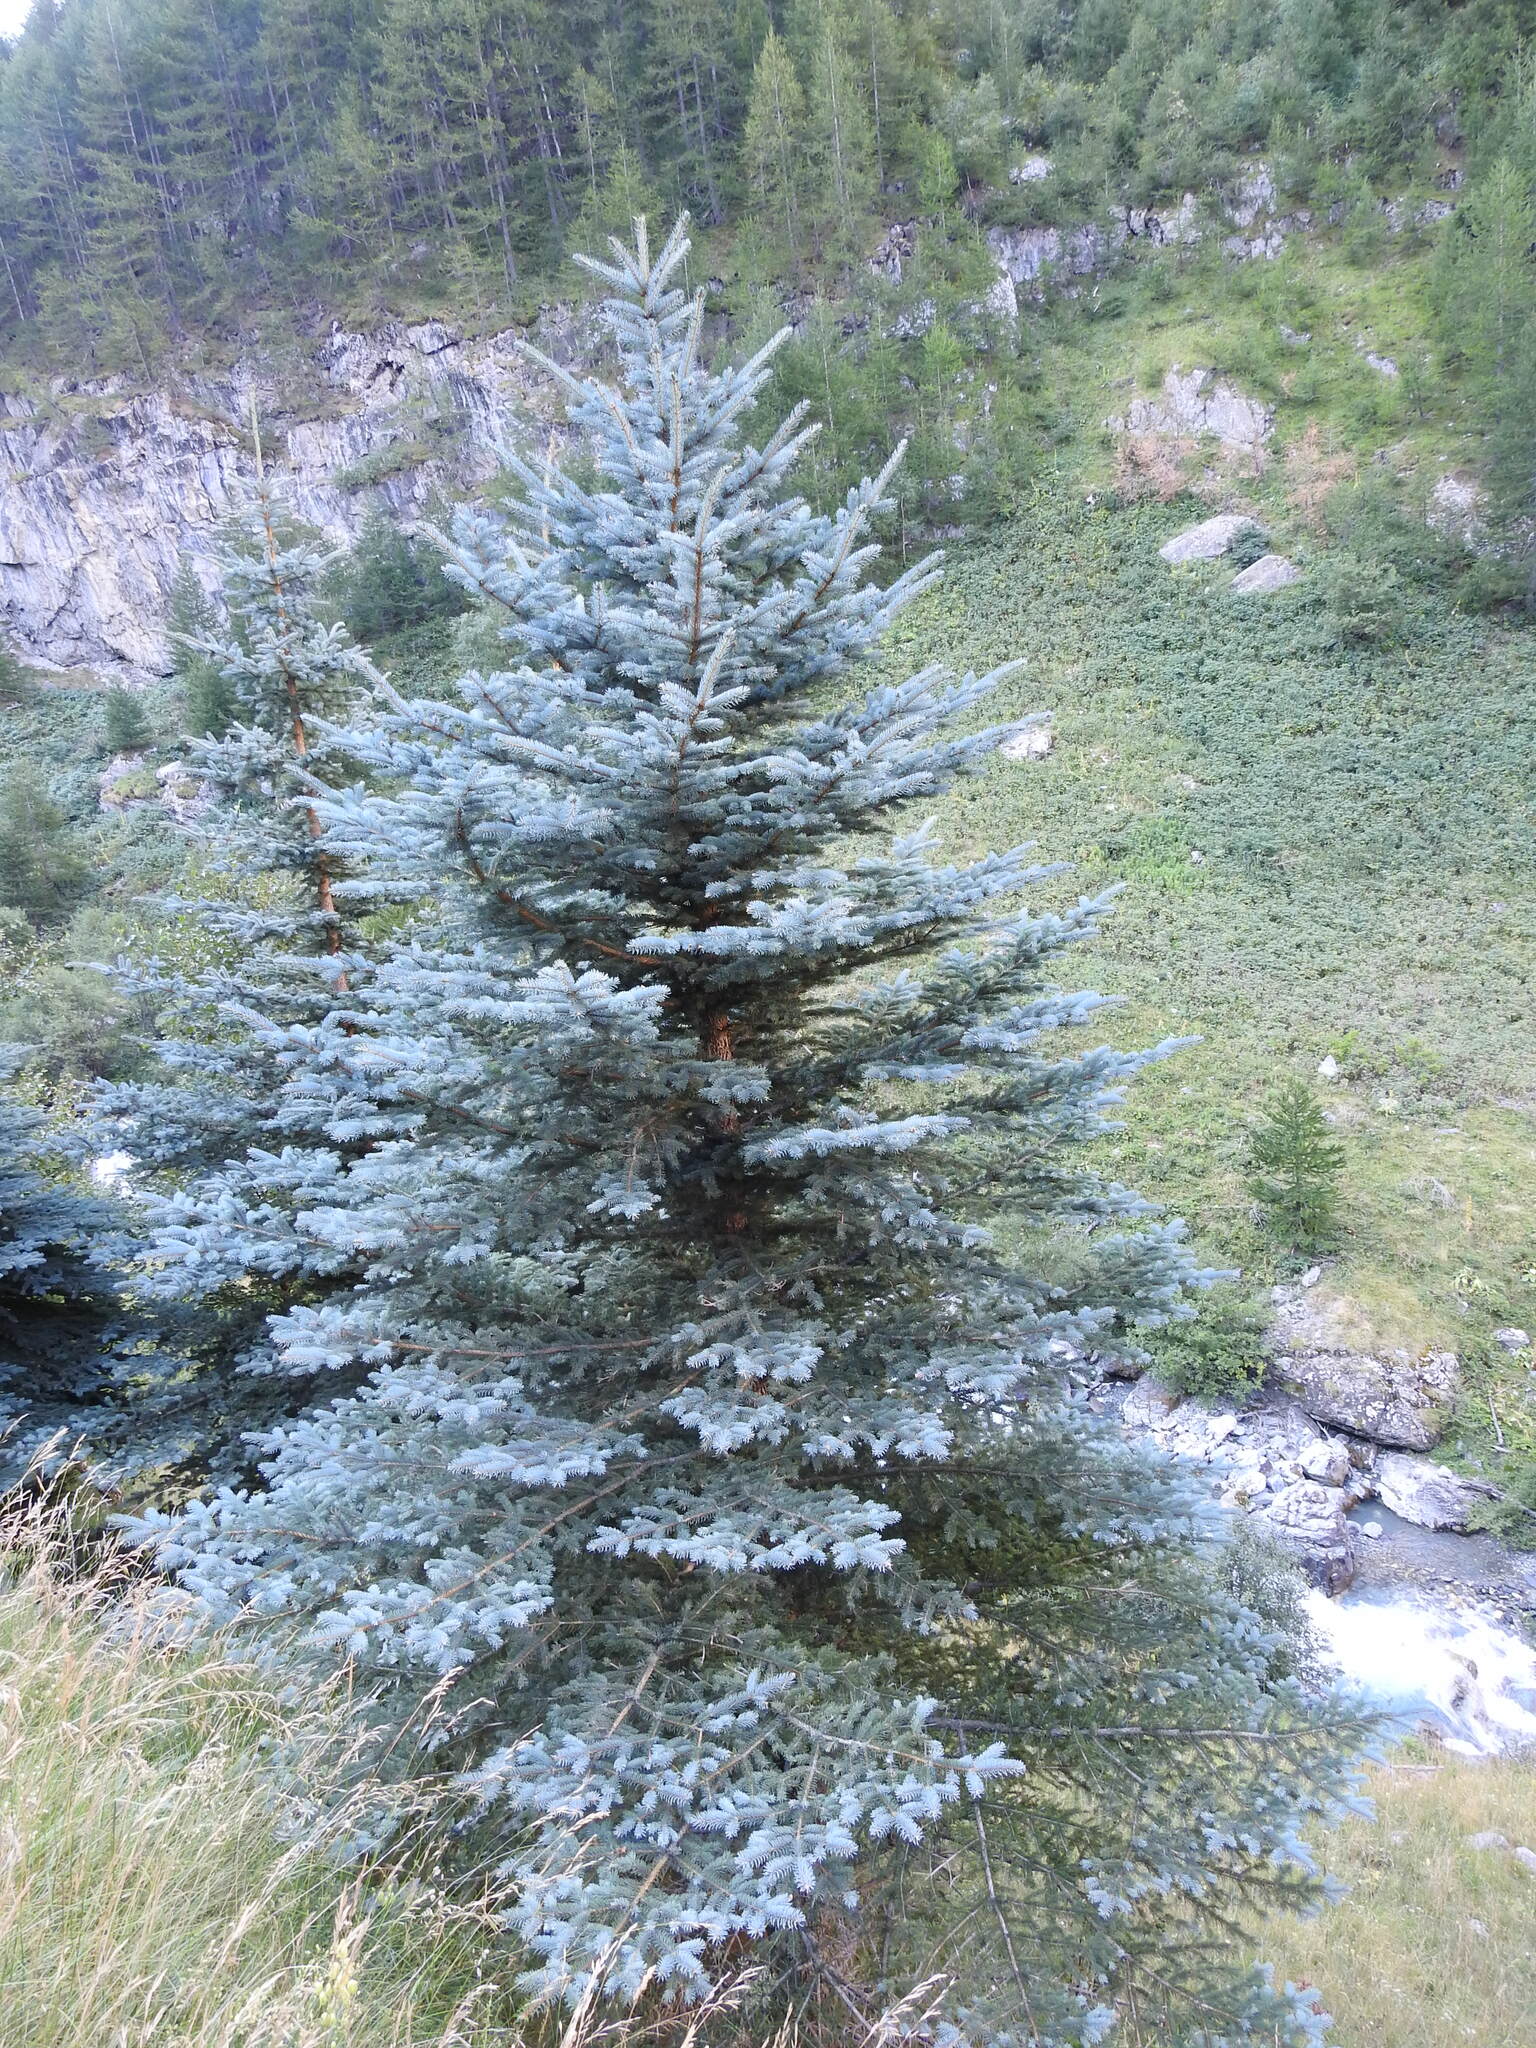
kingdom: Plantae
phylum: Tracheophyta
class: Pinopsida
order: Pinales
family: Pinaceae
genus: Picea
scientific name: Picea pungens
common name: Colorado spruce
